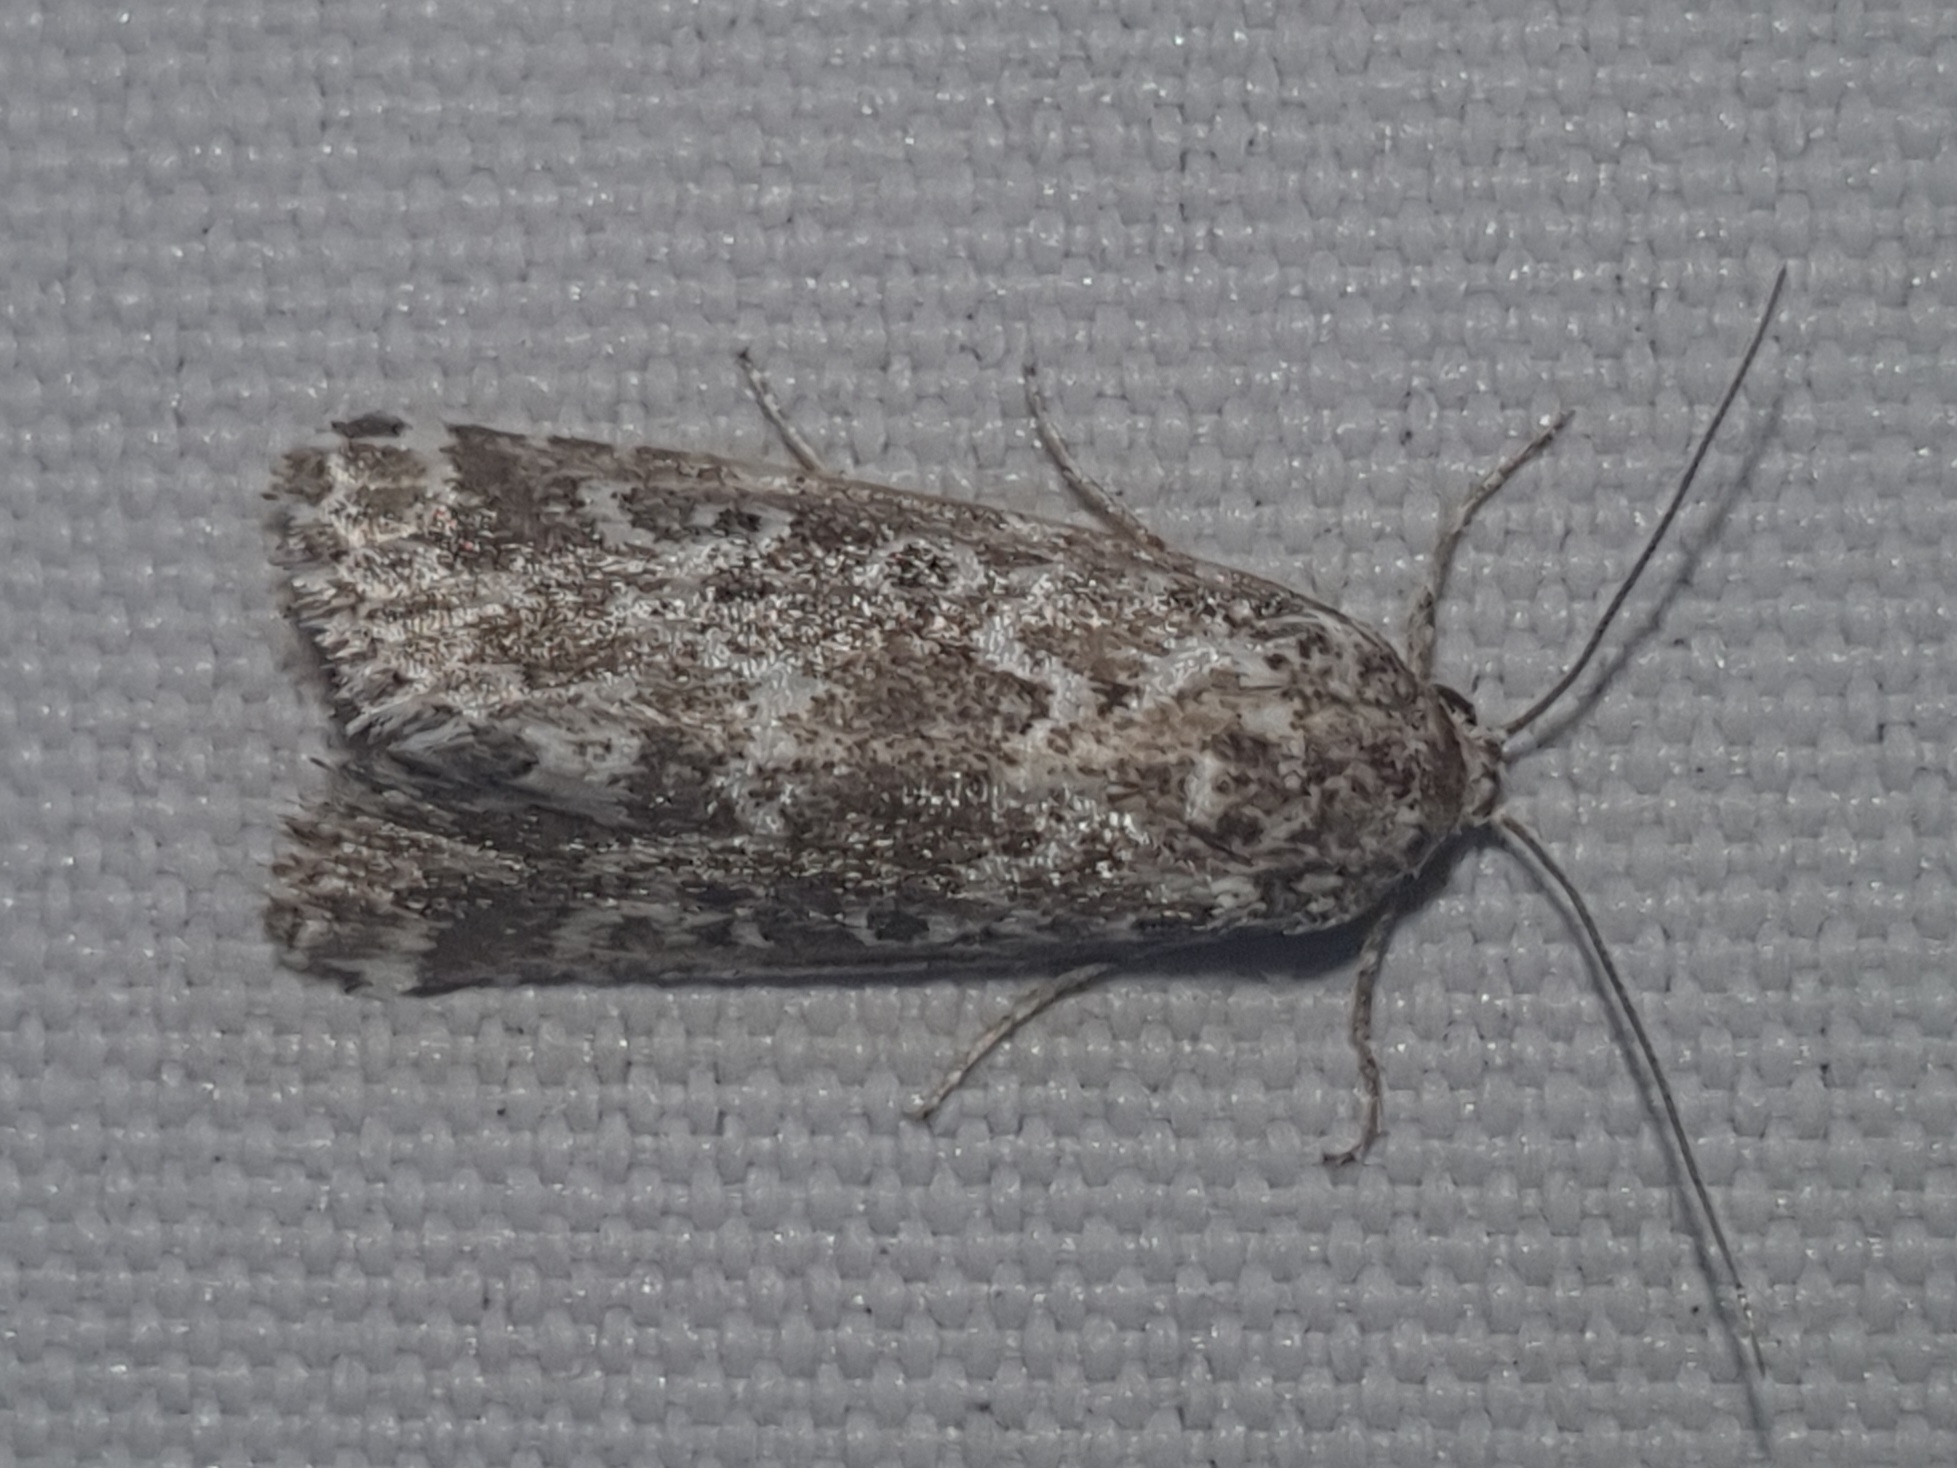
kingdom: Animalia
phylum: Arthropoda
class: Insecta
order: Lepidoptera
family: Noctuidae
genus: Alvaradoia
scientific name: Alvaradoia disjecta
